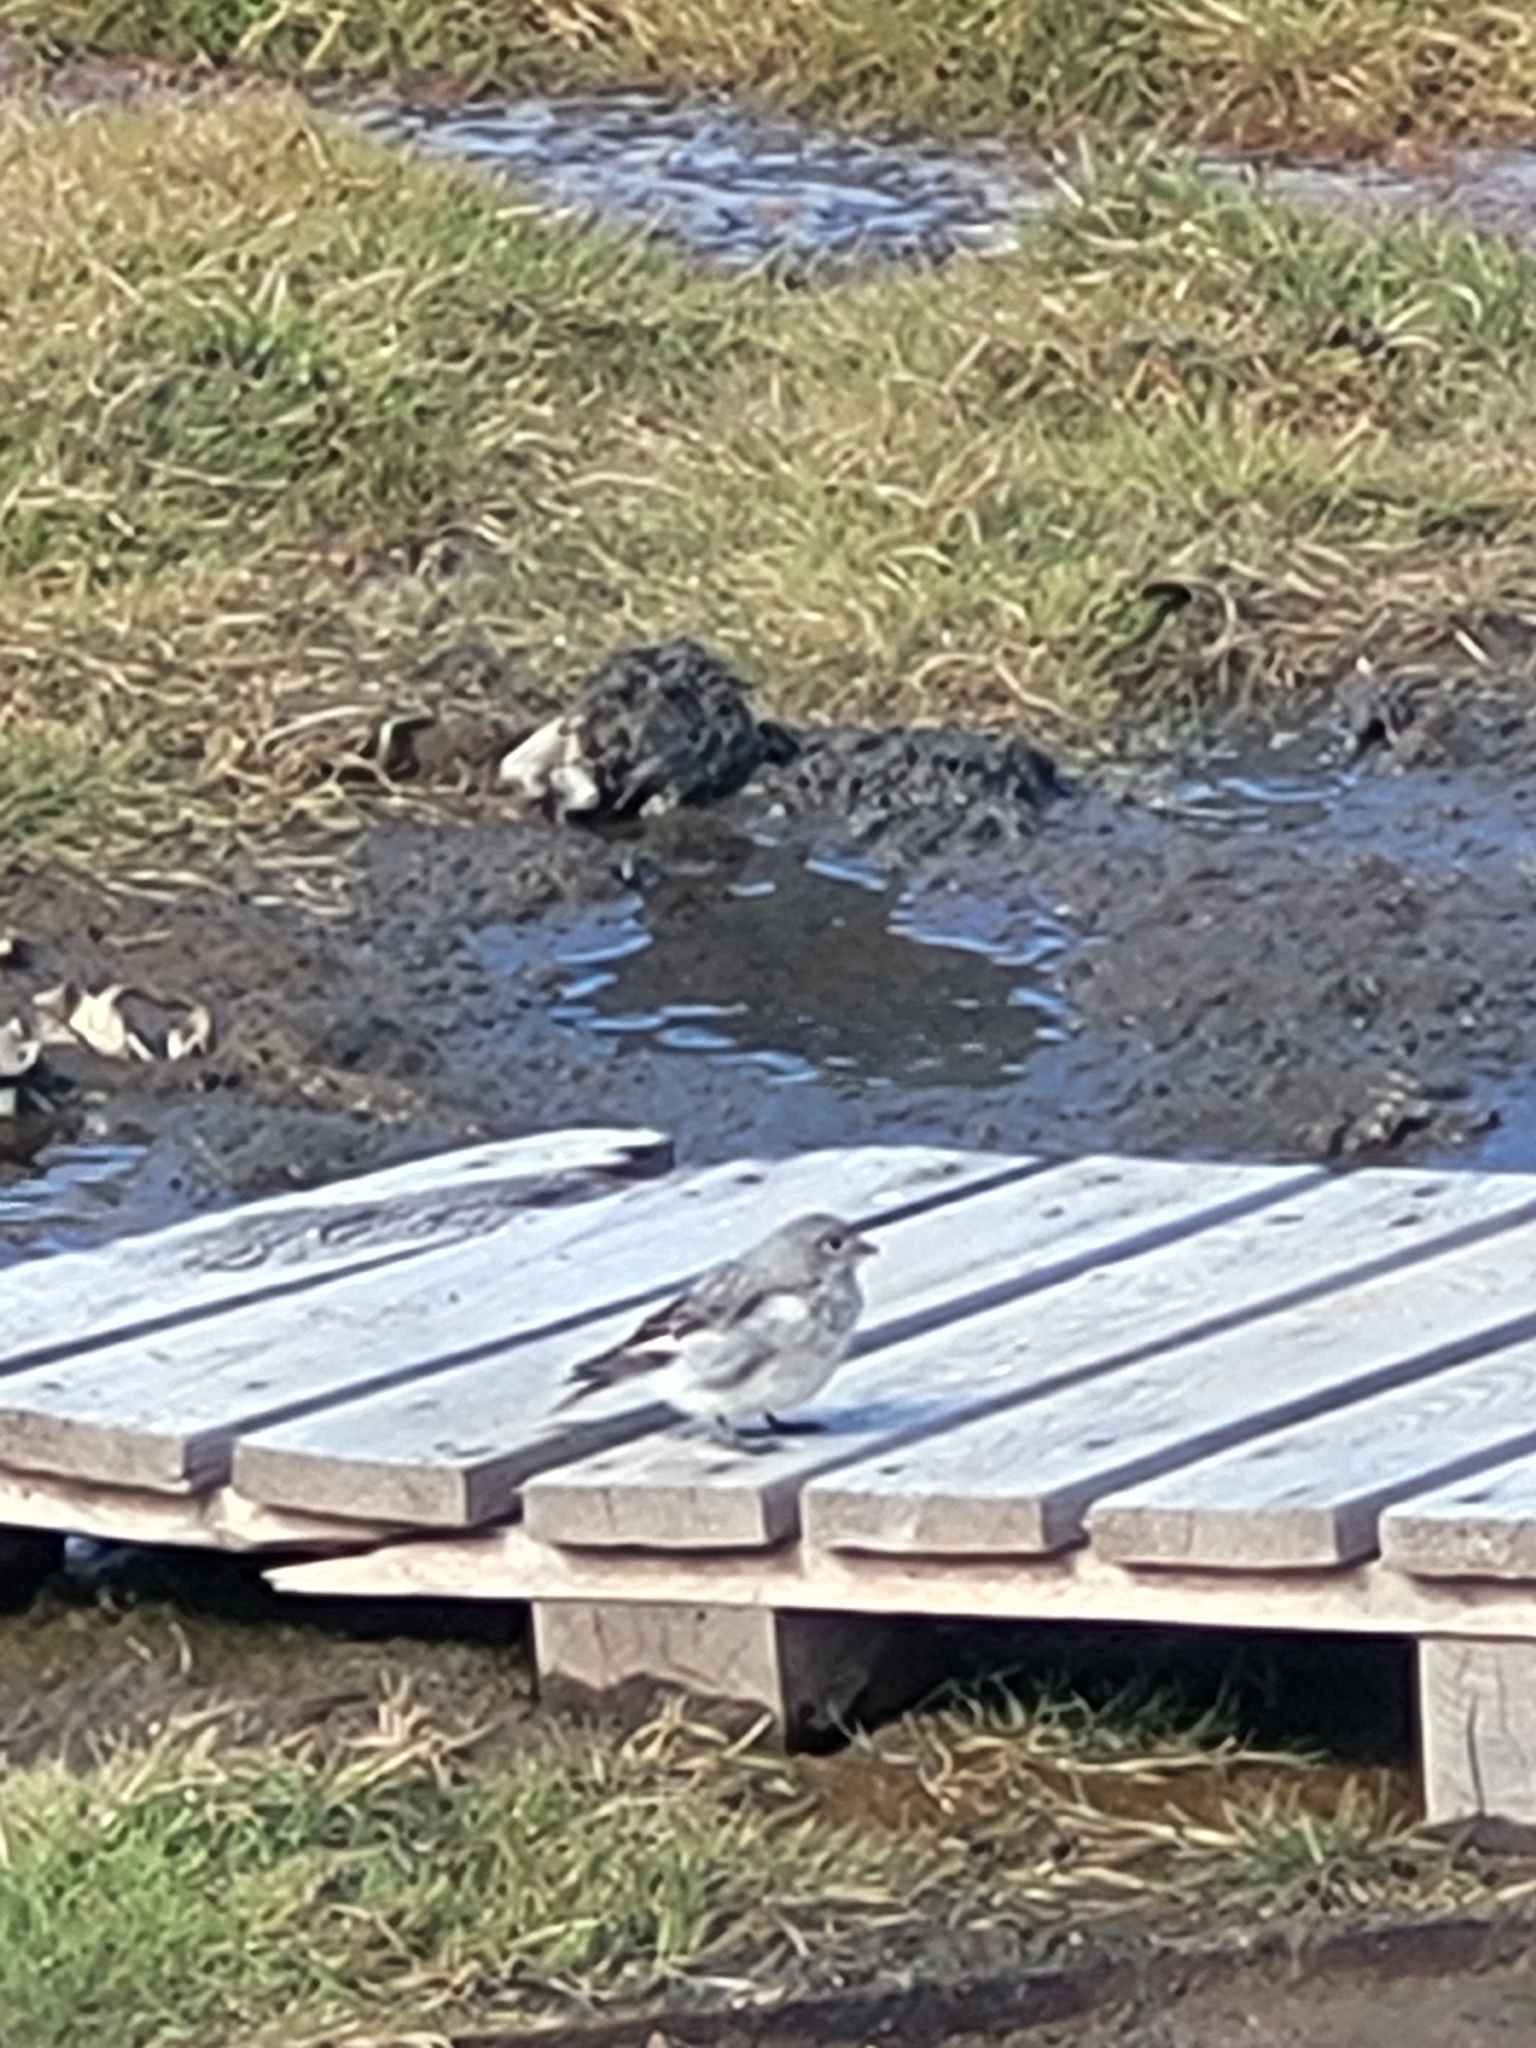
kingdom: Animalia
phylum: Chordata
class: Aves
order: Passeriformes
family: Calcariidae
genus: Plectrophenax
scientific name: Plectrophenax nivalis
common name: Snow bunting
